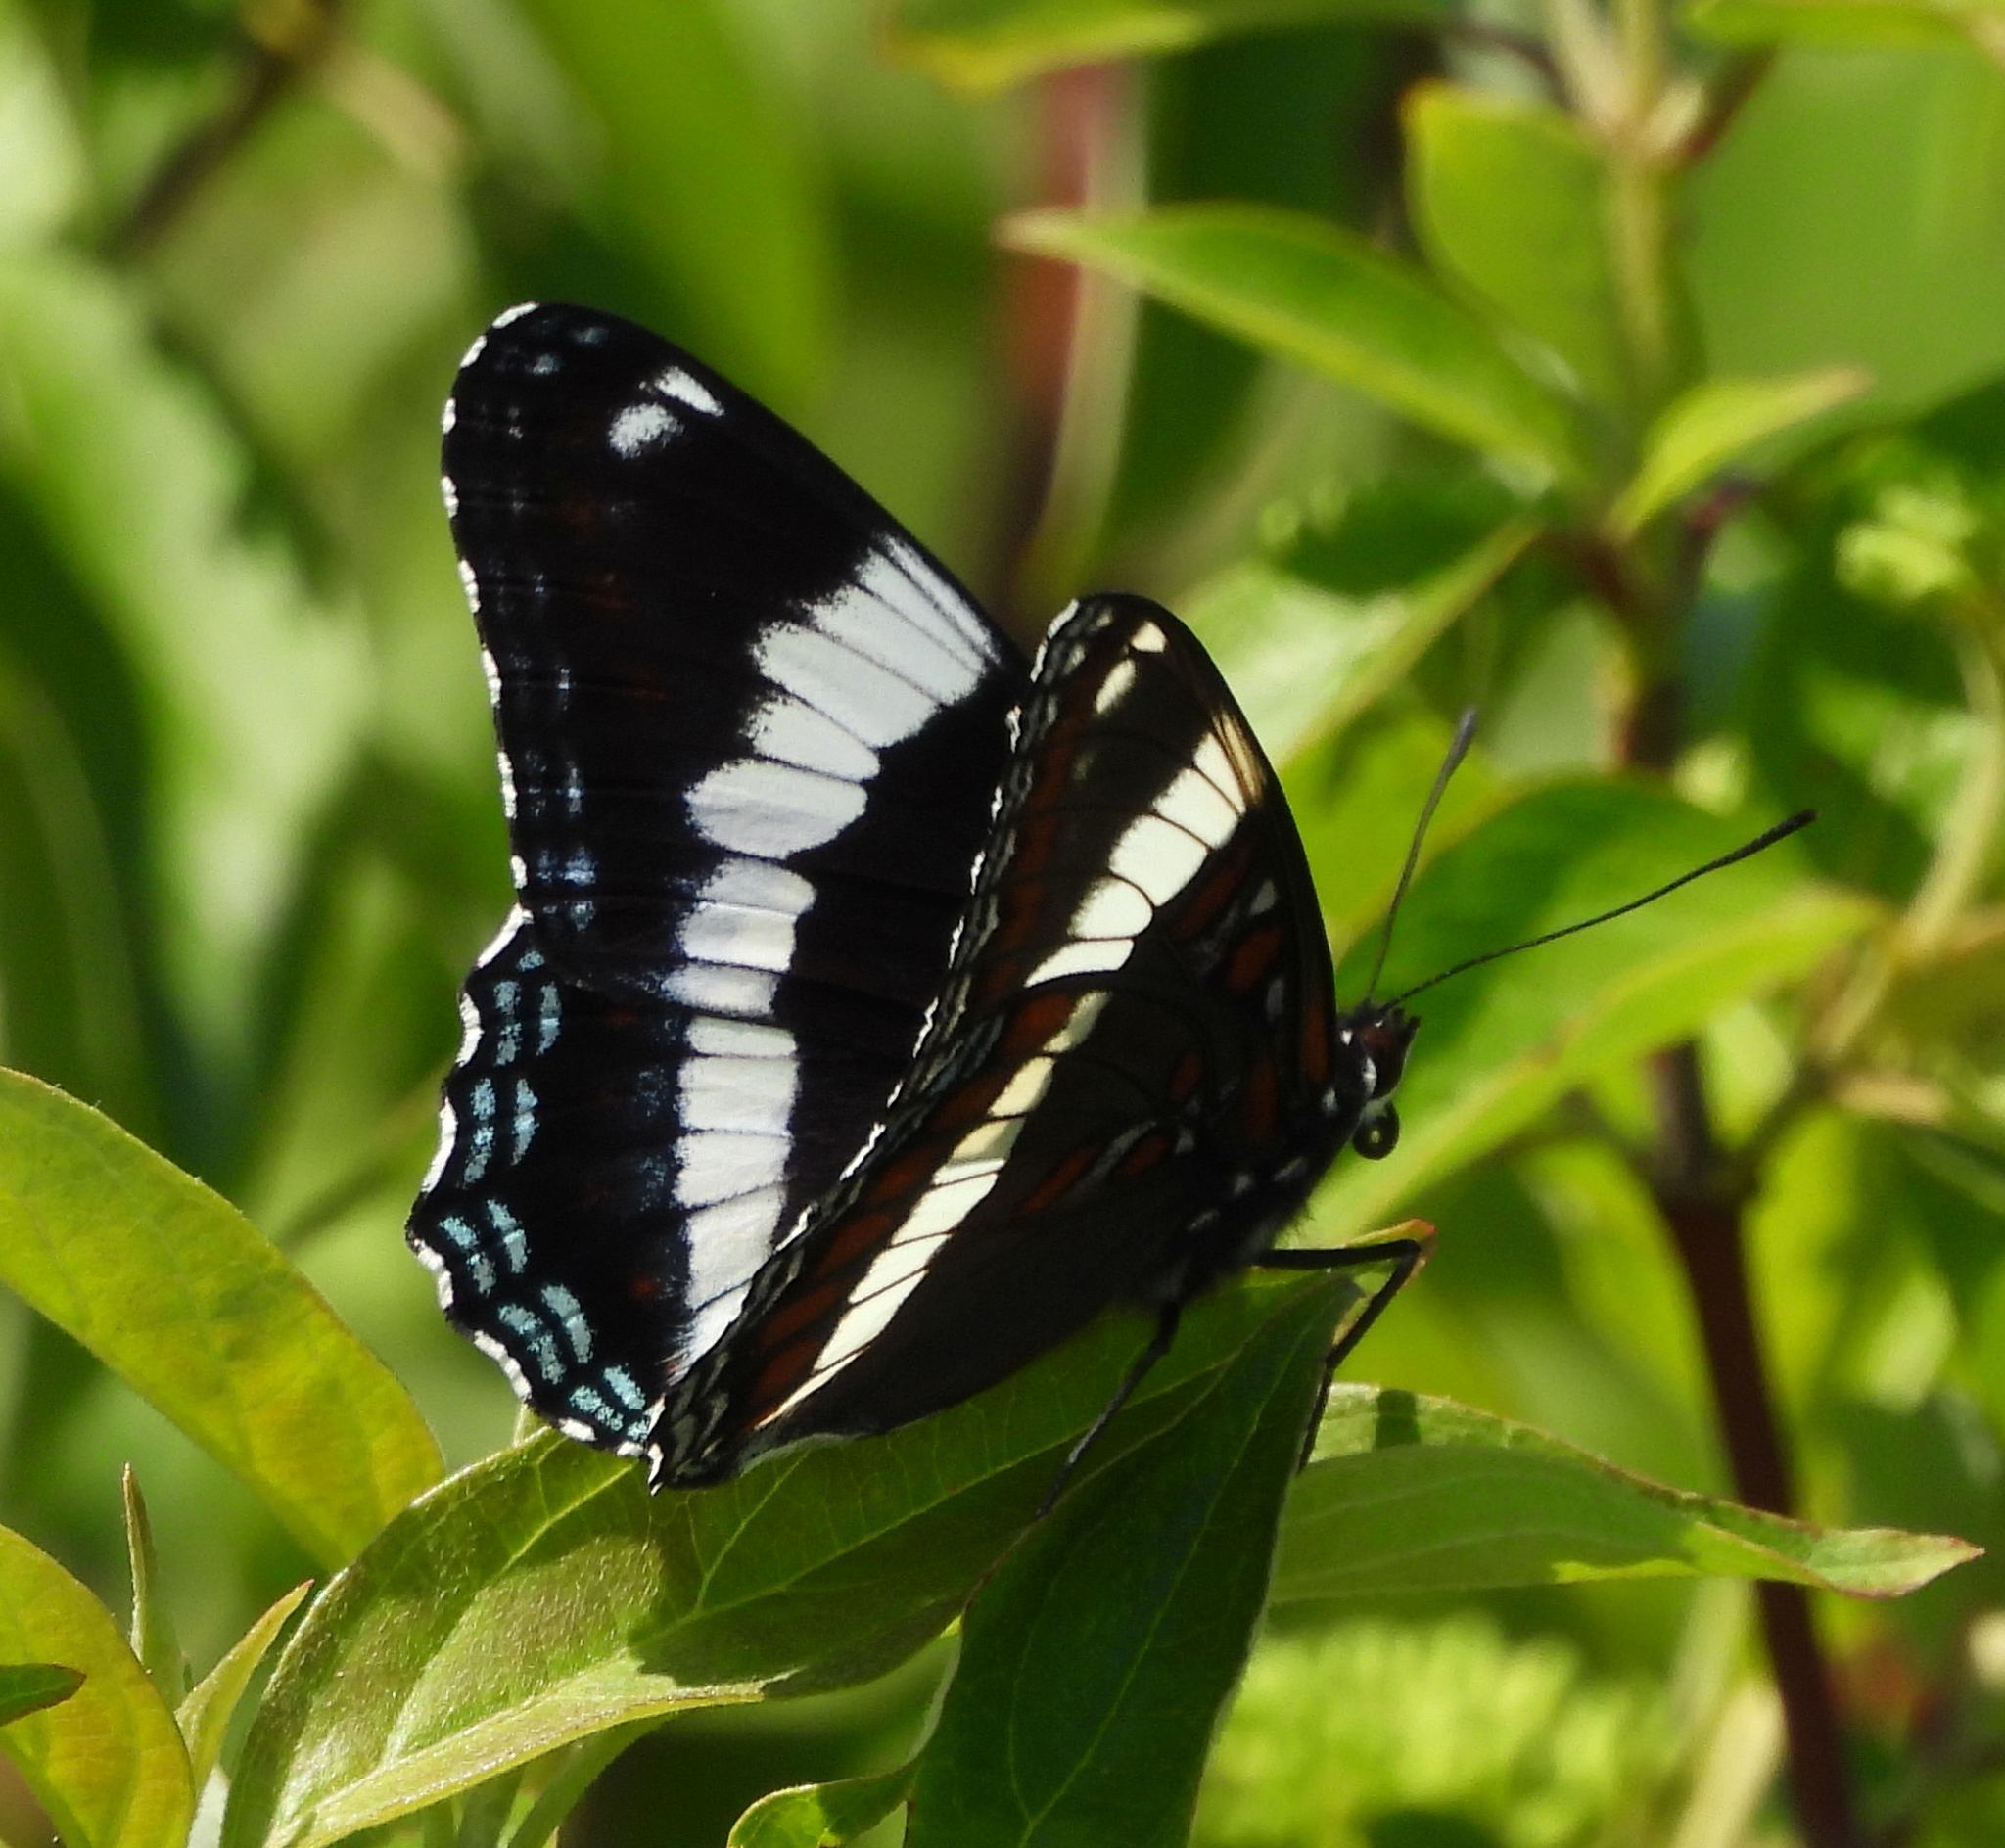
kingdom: Animalia
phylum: Arthropoda
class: Insecta
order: Lepidoptera
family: Nymphalidae
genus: Limenitis
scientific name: Limenitis arthemis
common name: Red-spotted admiral
